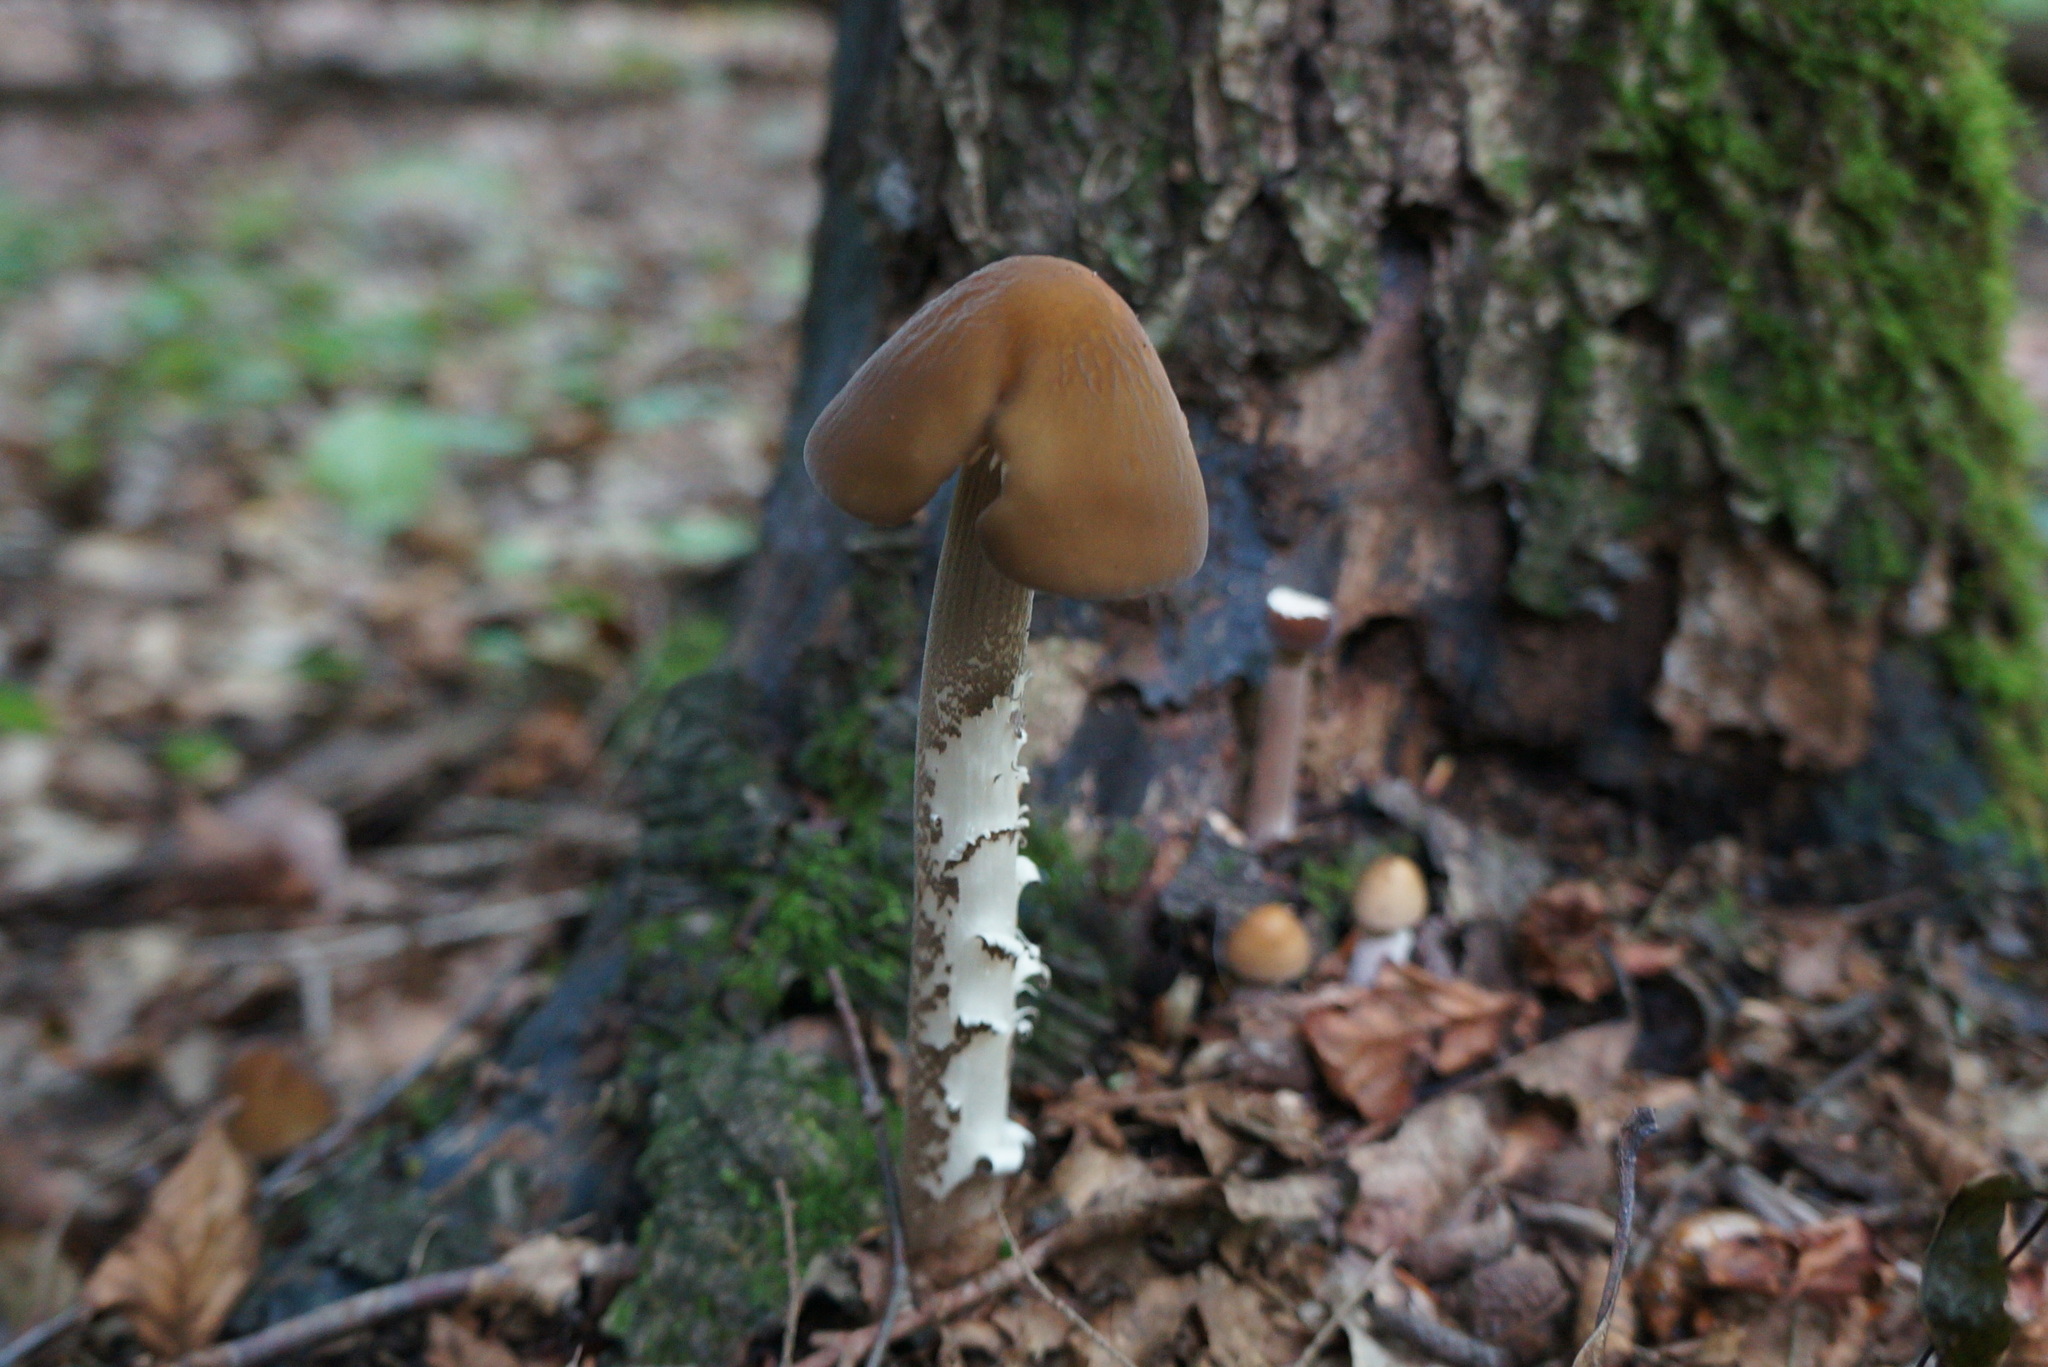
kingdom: Fungi
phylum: Basidiomycota
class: Agaricomycetes
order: Agaricales
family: Physalacriaceae
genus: Hymenopellis
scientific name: Hymenopellis furfuracea
